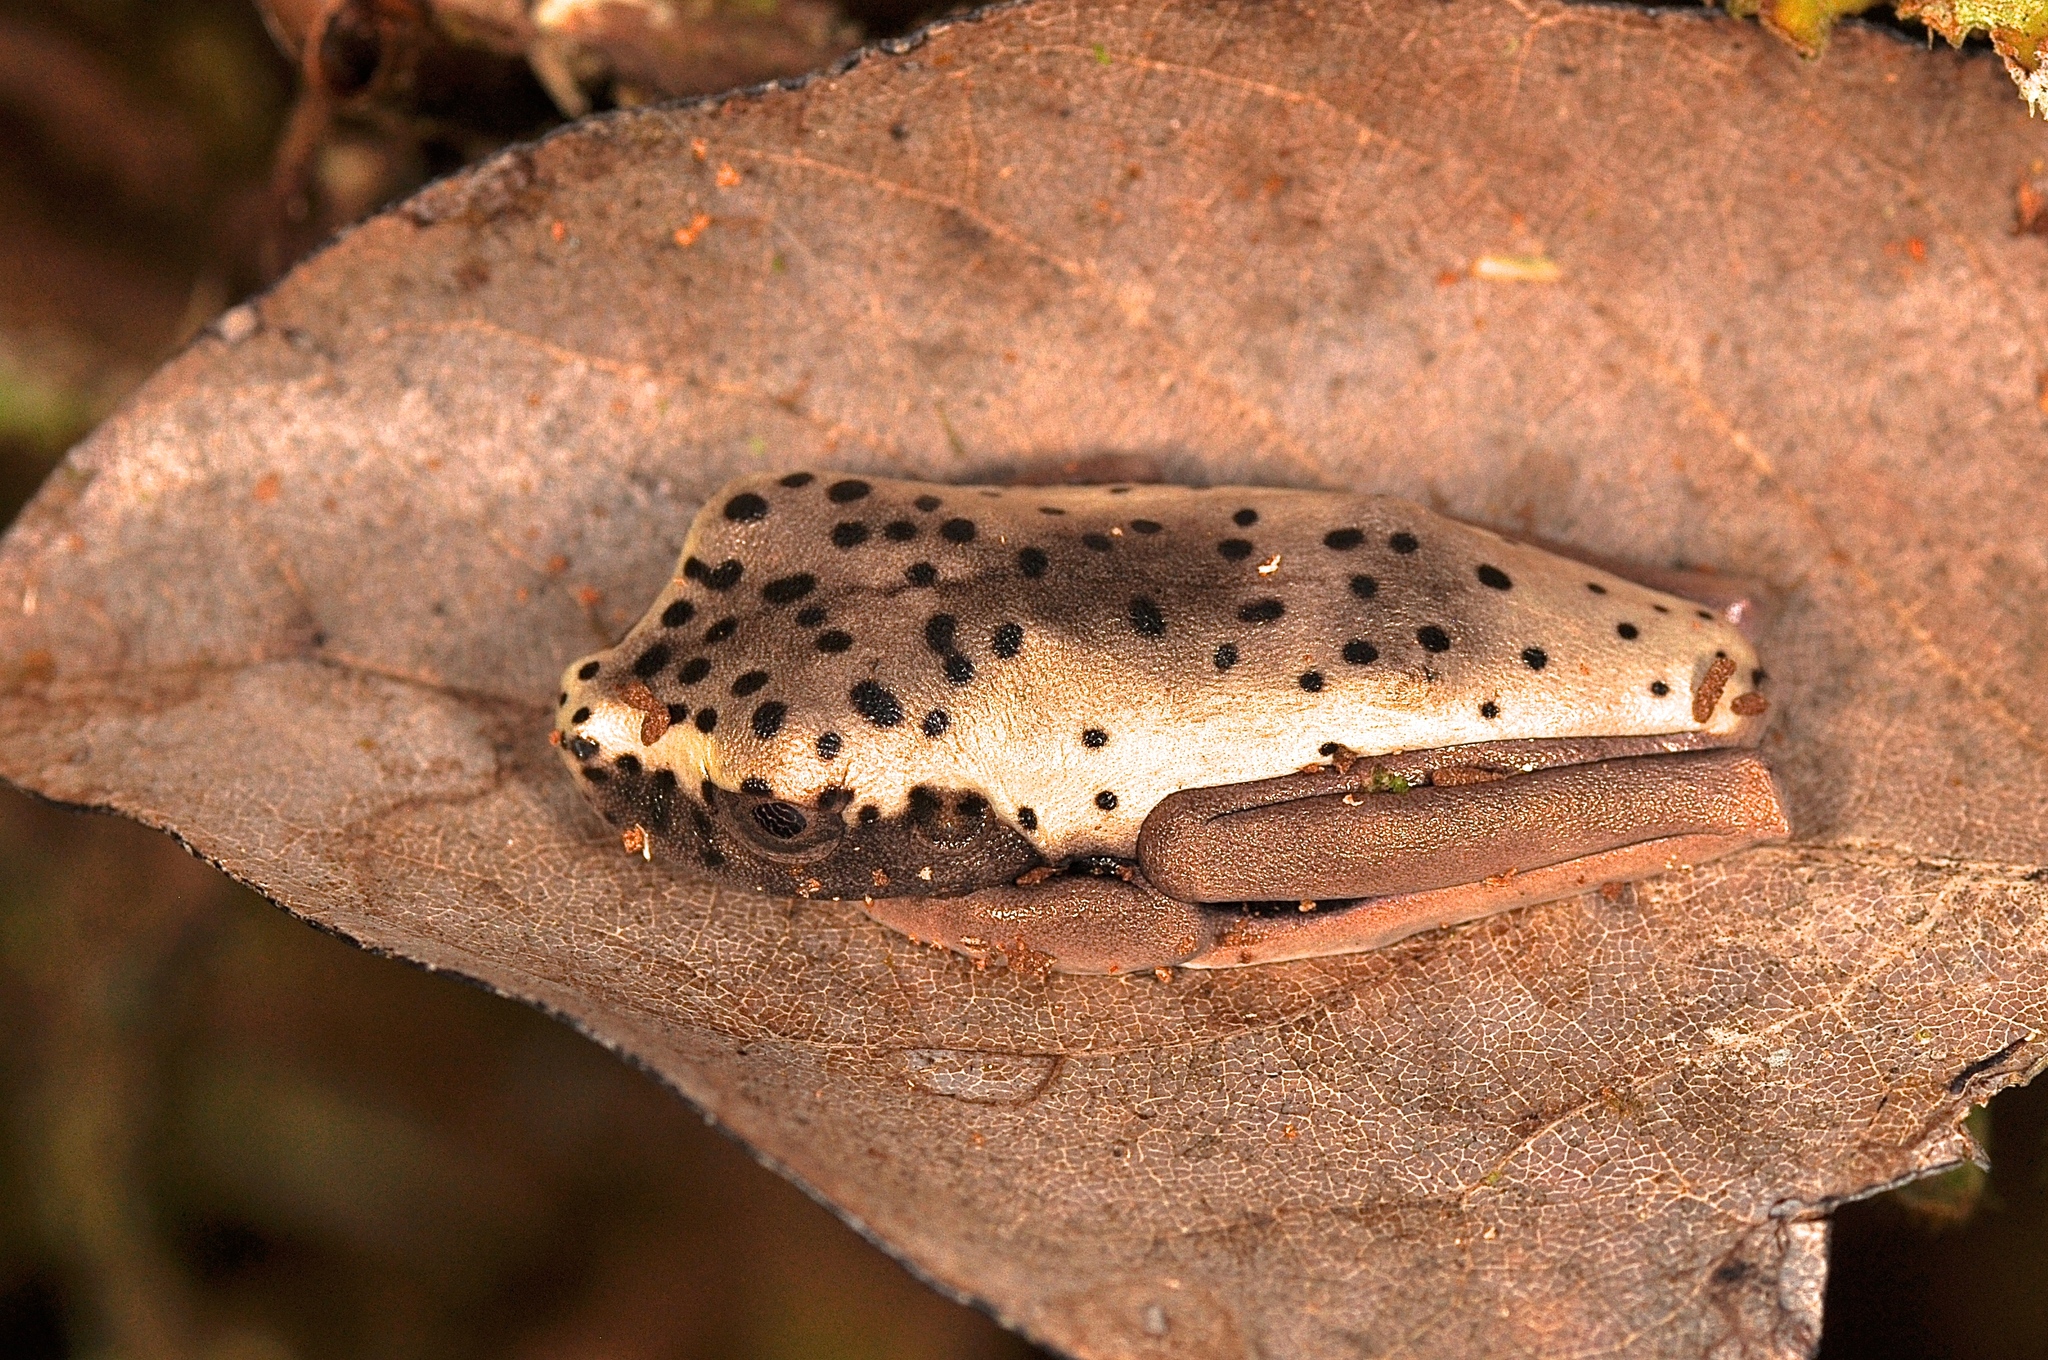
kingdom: Animalia
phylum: Chordata
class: Amphibia
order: Anura
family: Hylidae
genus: Boana
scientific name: Boana appendiculata
